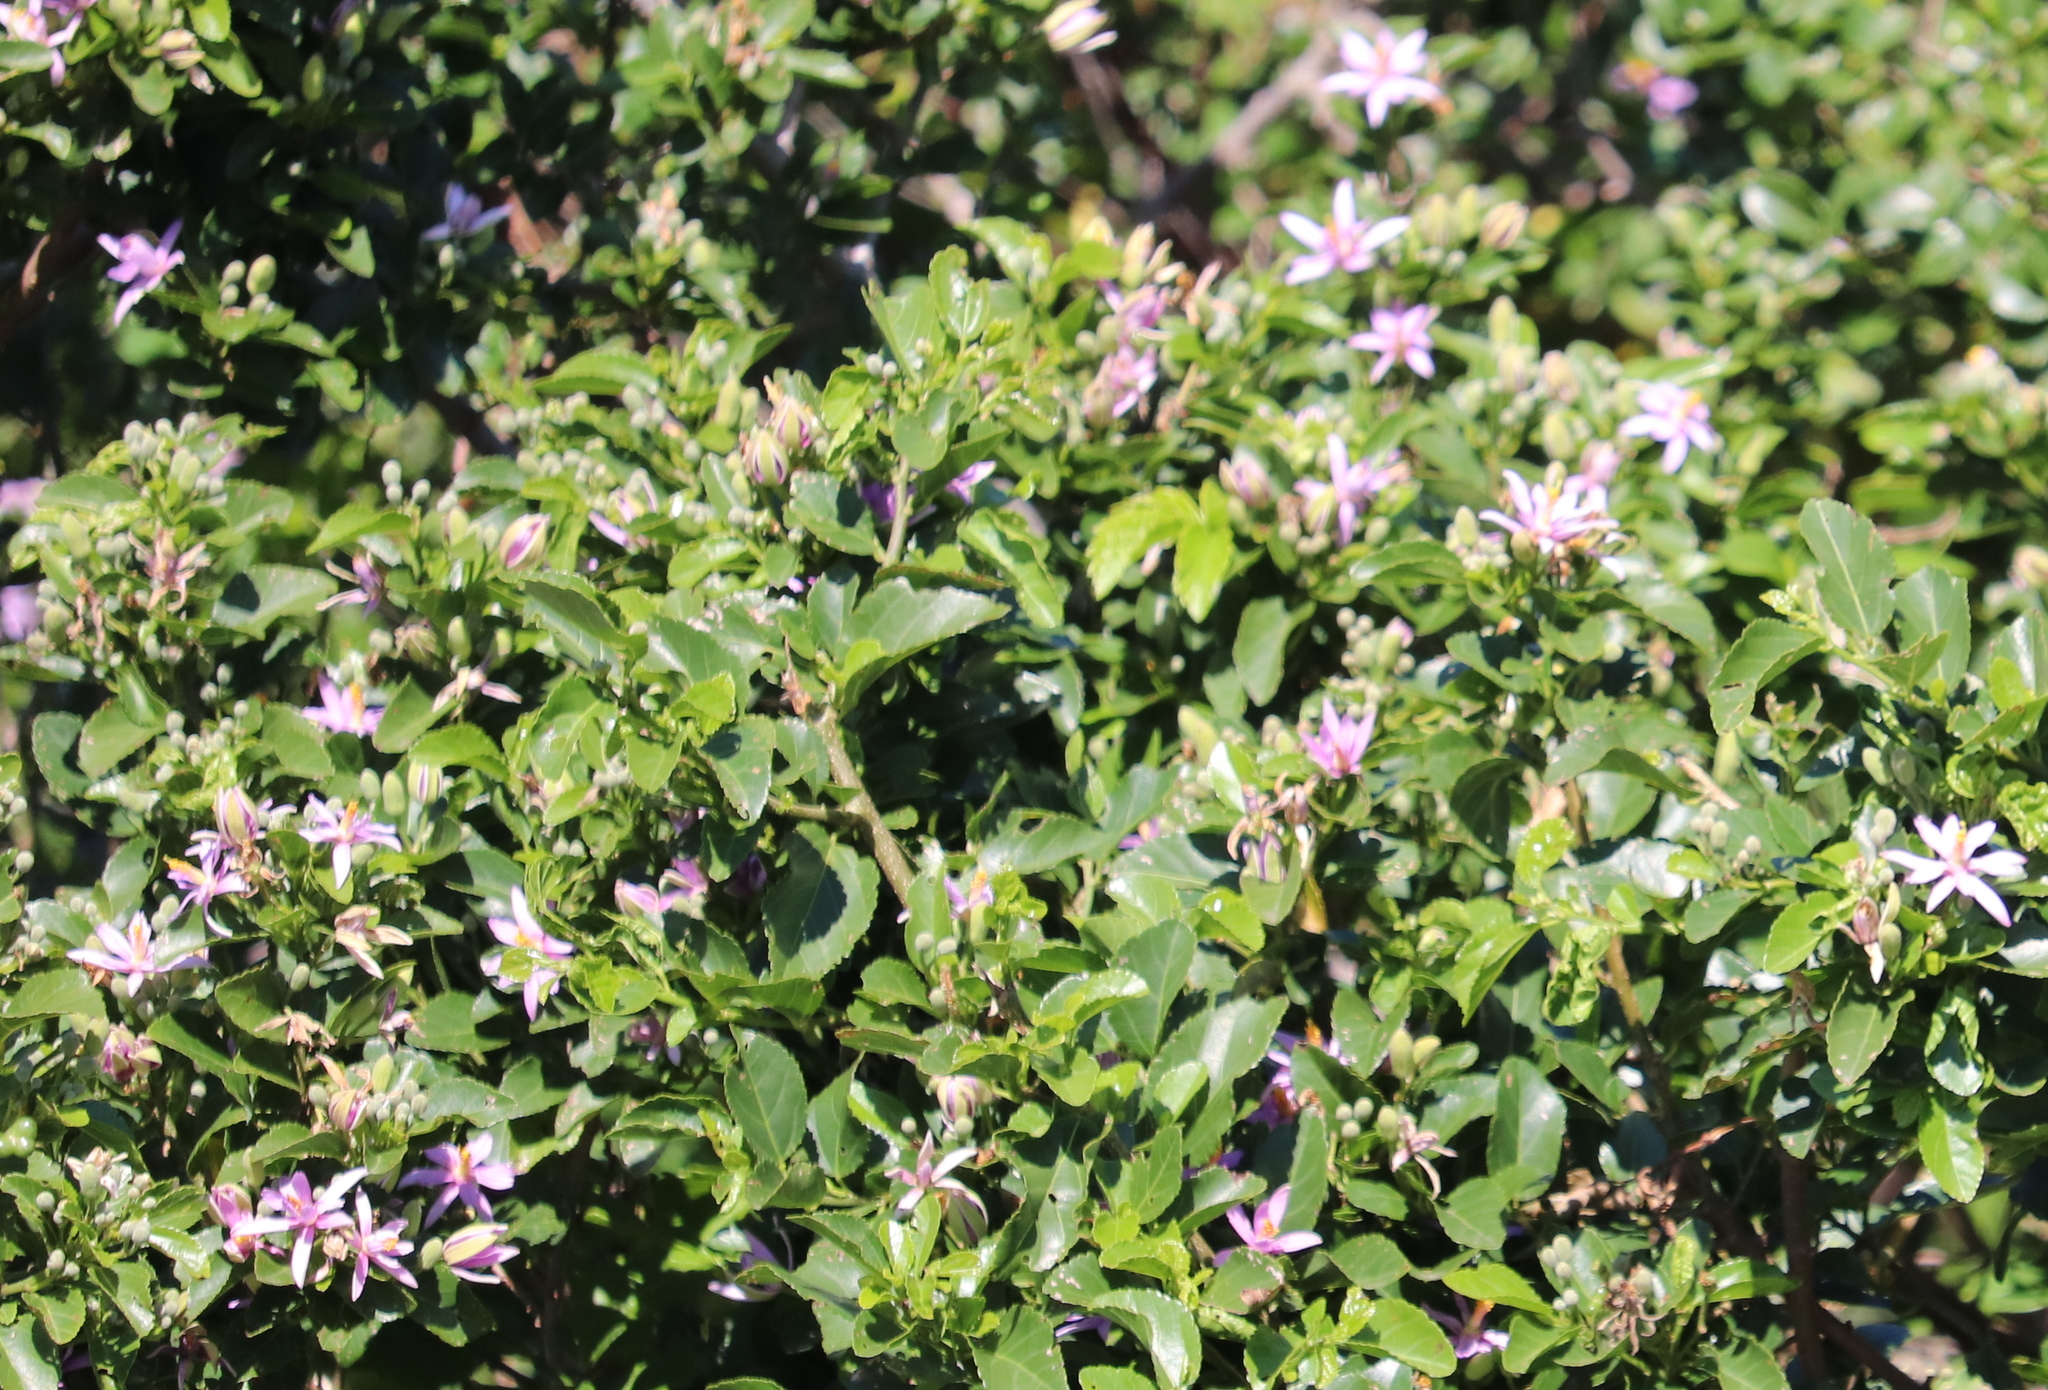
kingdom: Plantae
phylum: Tracheophyta
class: Magnoliopsida
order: Malvales
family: Malvaceae
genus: Grewia
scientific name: Grewia occidentalis
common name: Crossberry
